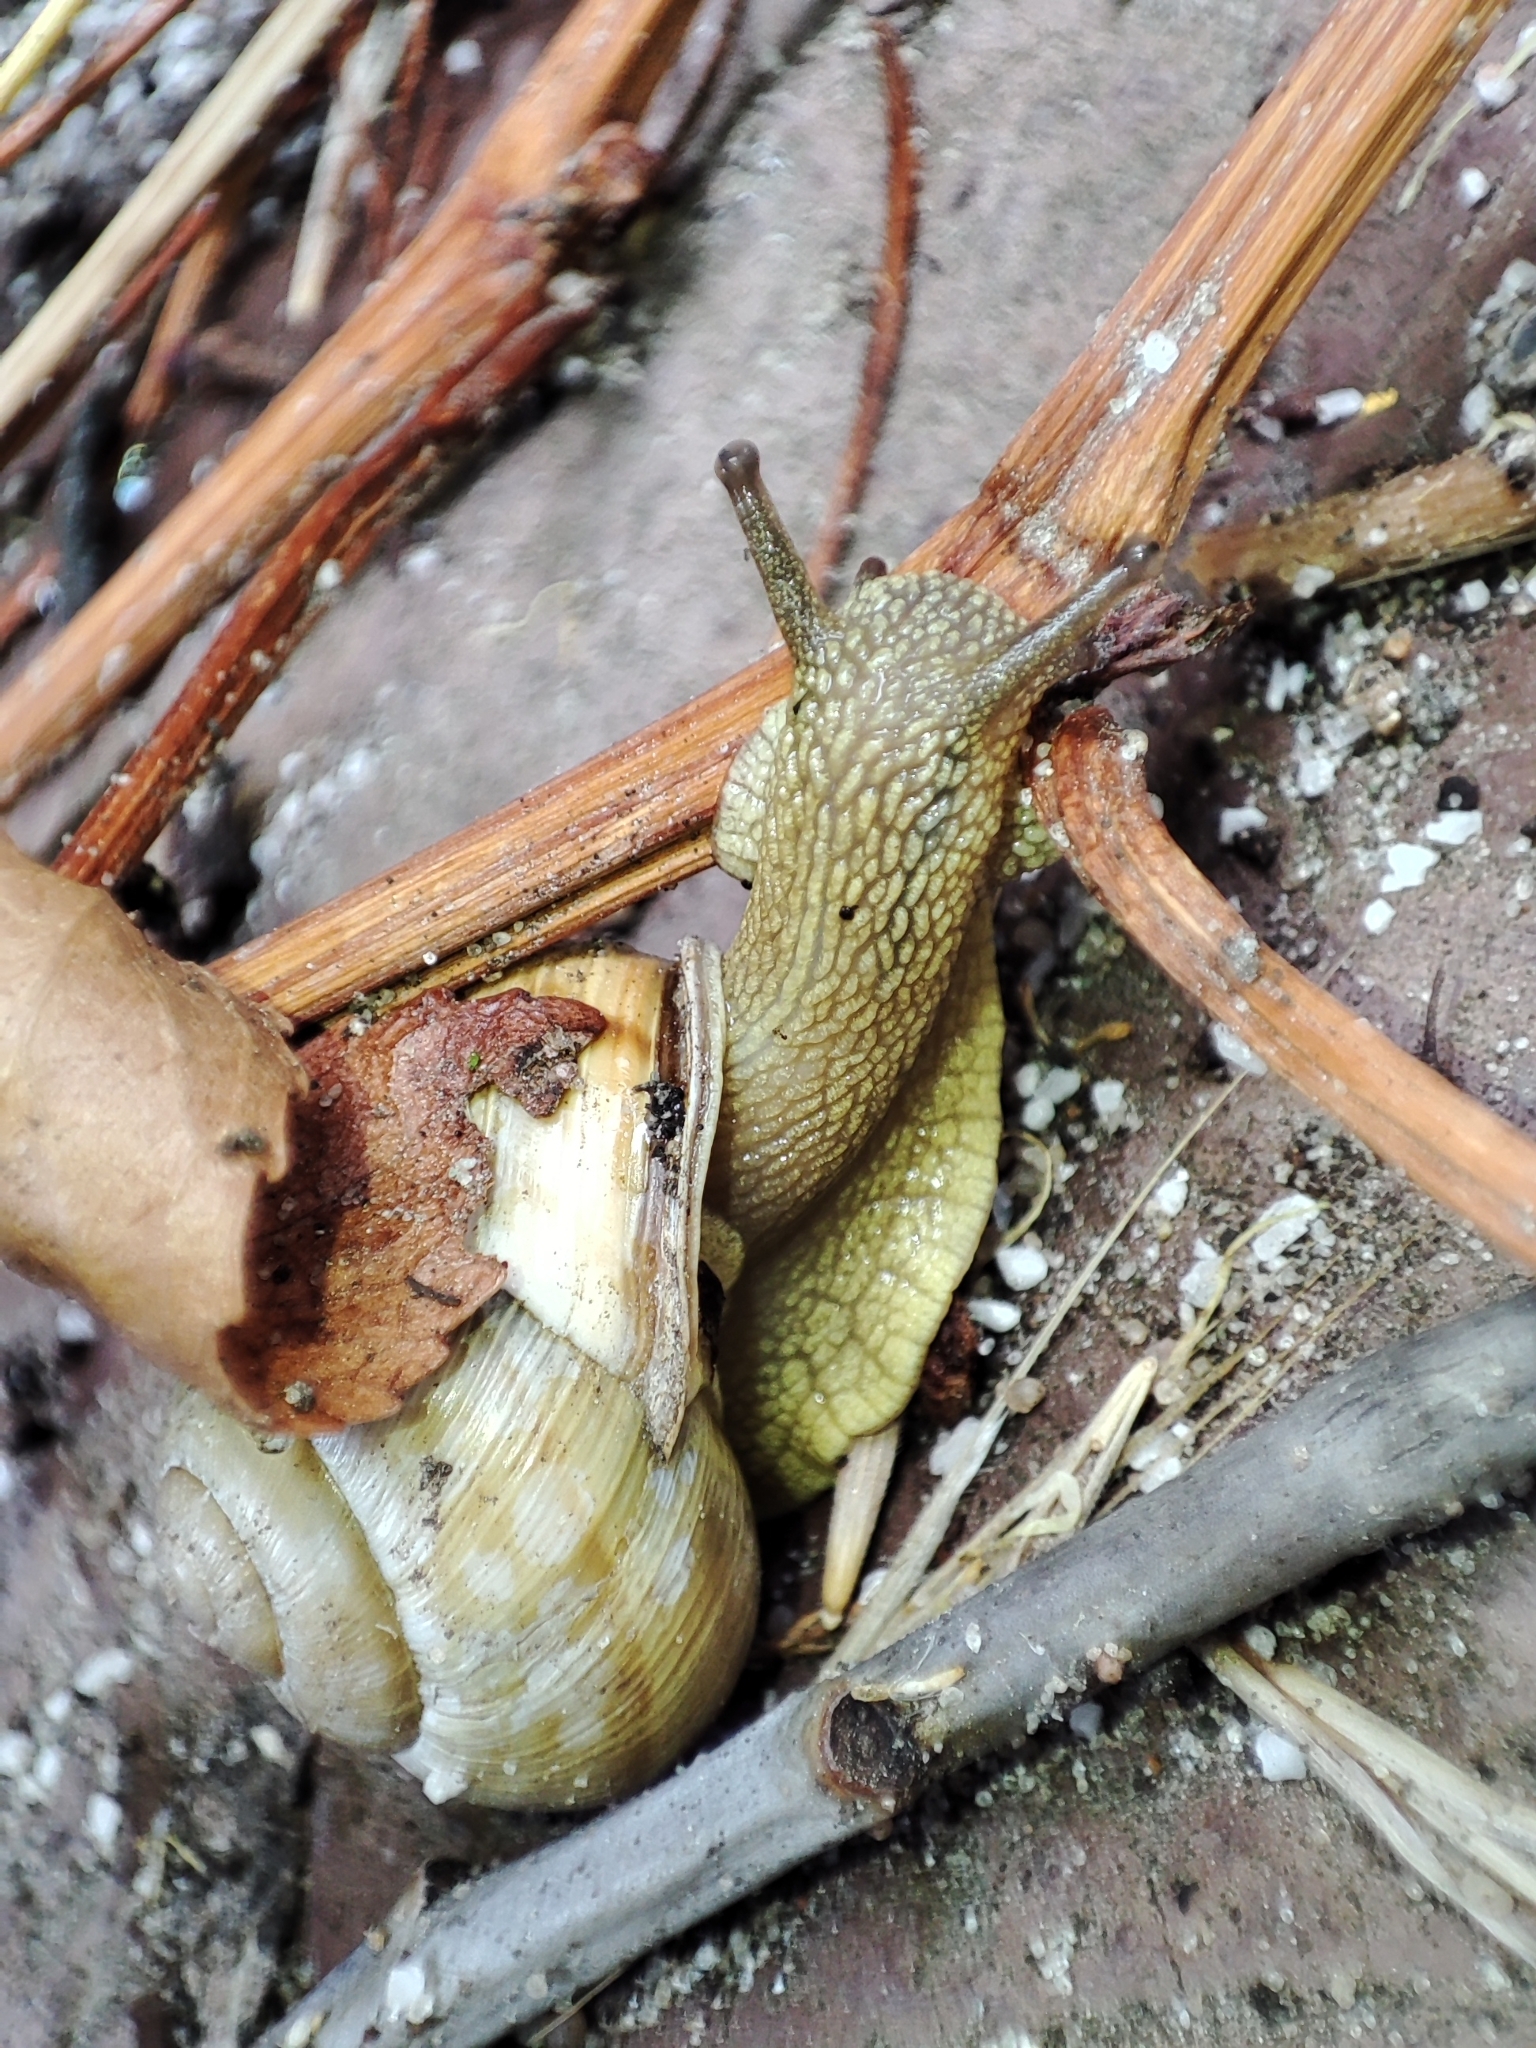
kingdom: Animalia
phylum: Mollusca
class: Gastropoda
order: Stylommatophora
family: Helicidae
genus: Caucasotachea
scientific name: Caucasotachea vindobonensis
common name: European helicid land snail
